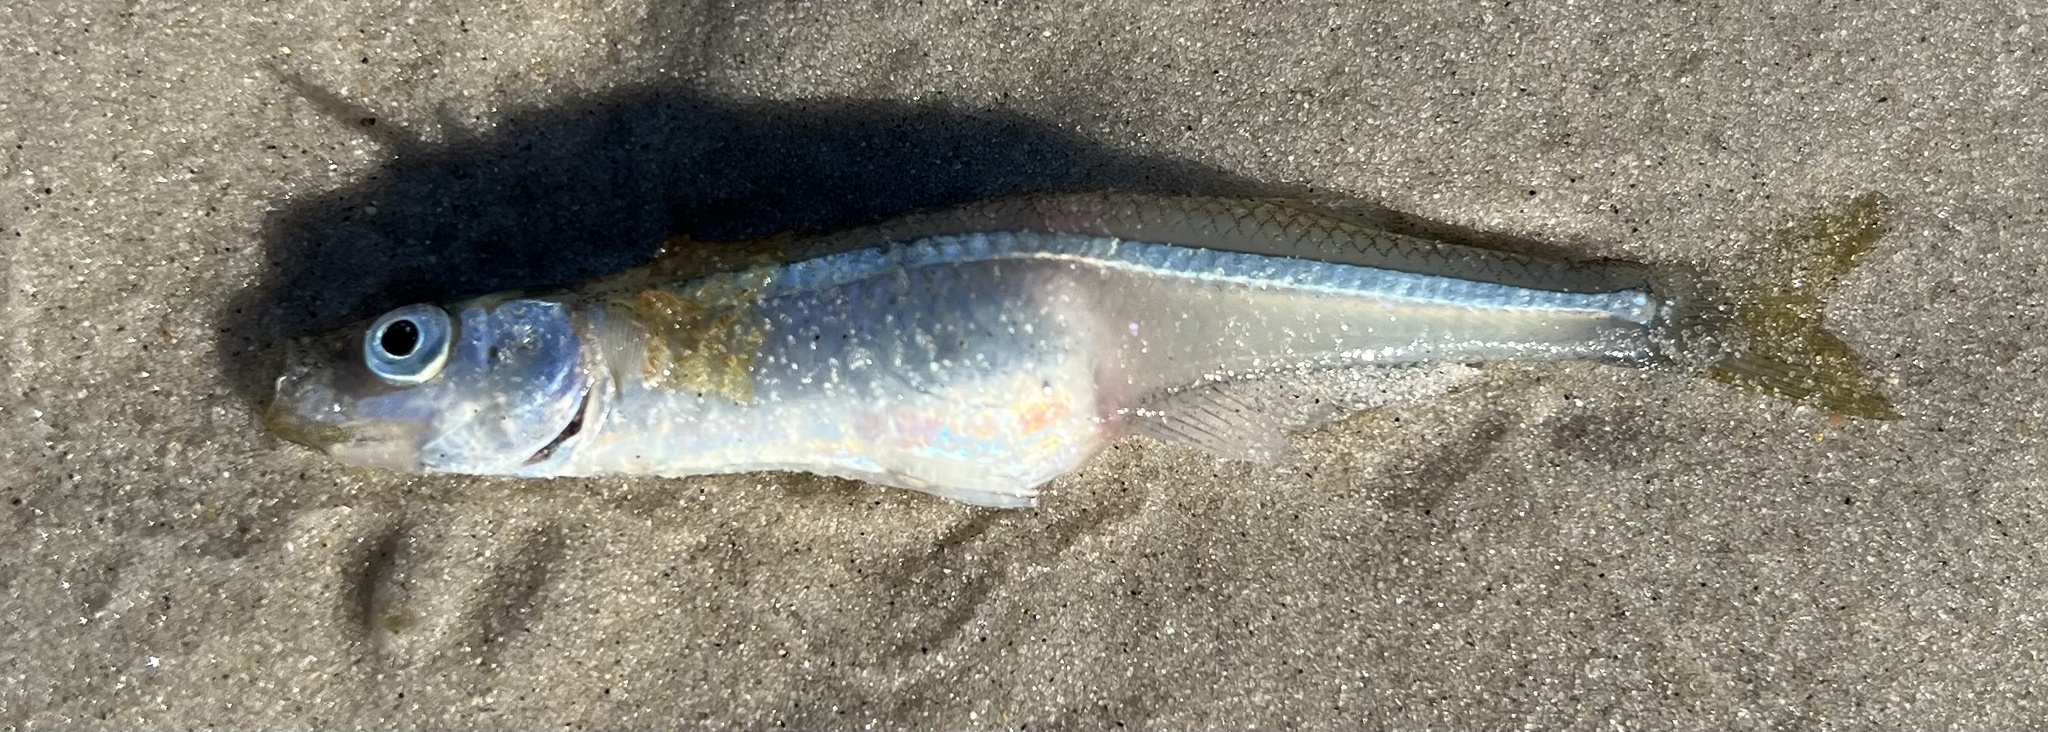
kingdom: Animalia
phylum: Chordata
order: Atheriniformes
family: Atherinopsidae
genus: Menidia
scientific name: Menidia menidia
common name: Atlantic silverside
